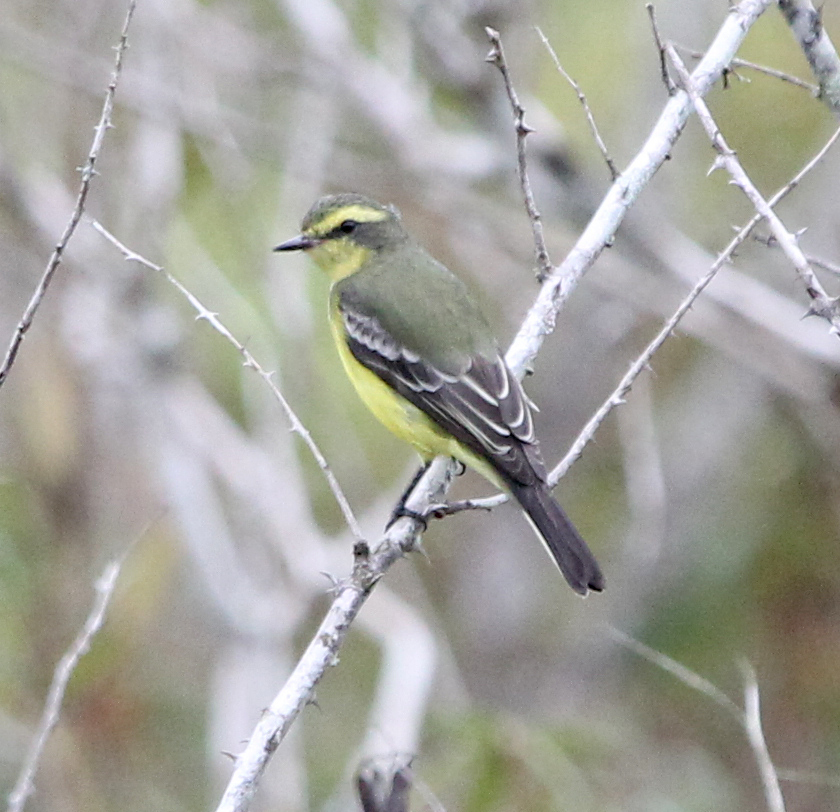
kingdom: Animalia
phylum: Chordata
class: Aves
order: Passeriformes
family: Tyrannidae
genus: Satrapa
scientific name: Satrapa icterophrys
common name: Yellow-browed tyrant
